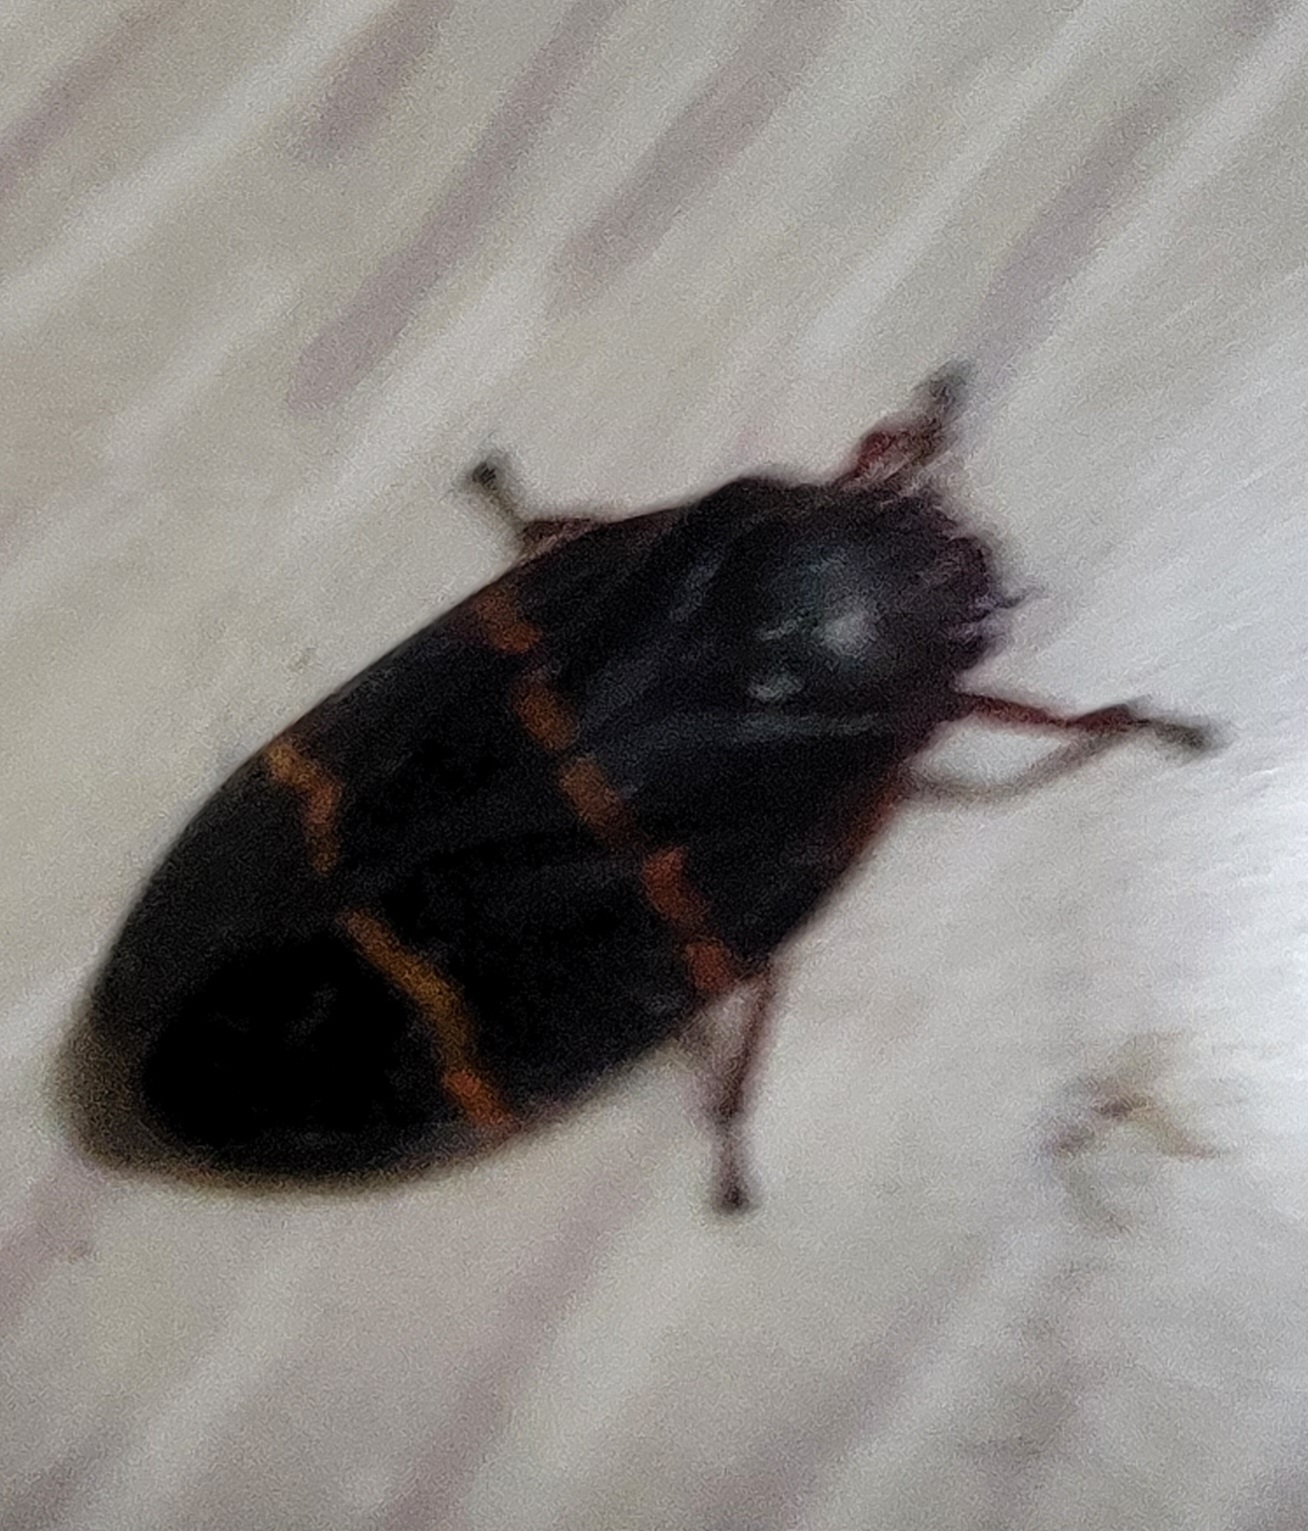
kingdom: Animalia
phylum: Arthropoda
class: Insecta
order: Hemiptera
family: Cercopidae
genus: Prosapia
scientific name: Prosapia bicincta
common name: Twolined spittlebug
